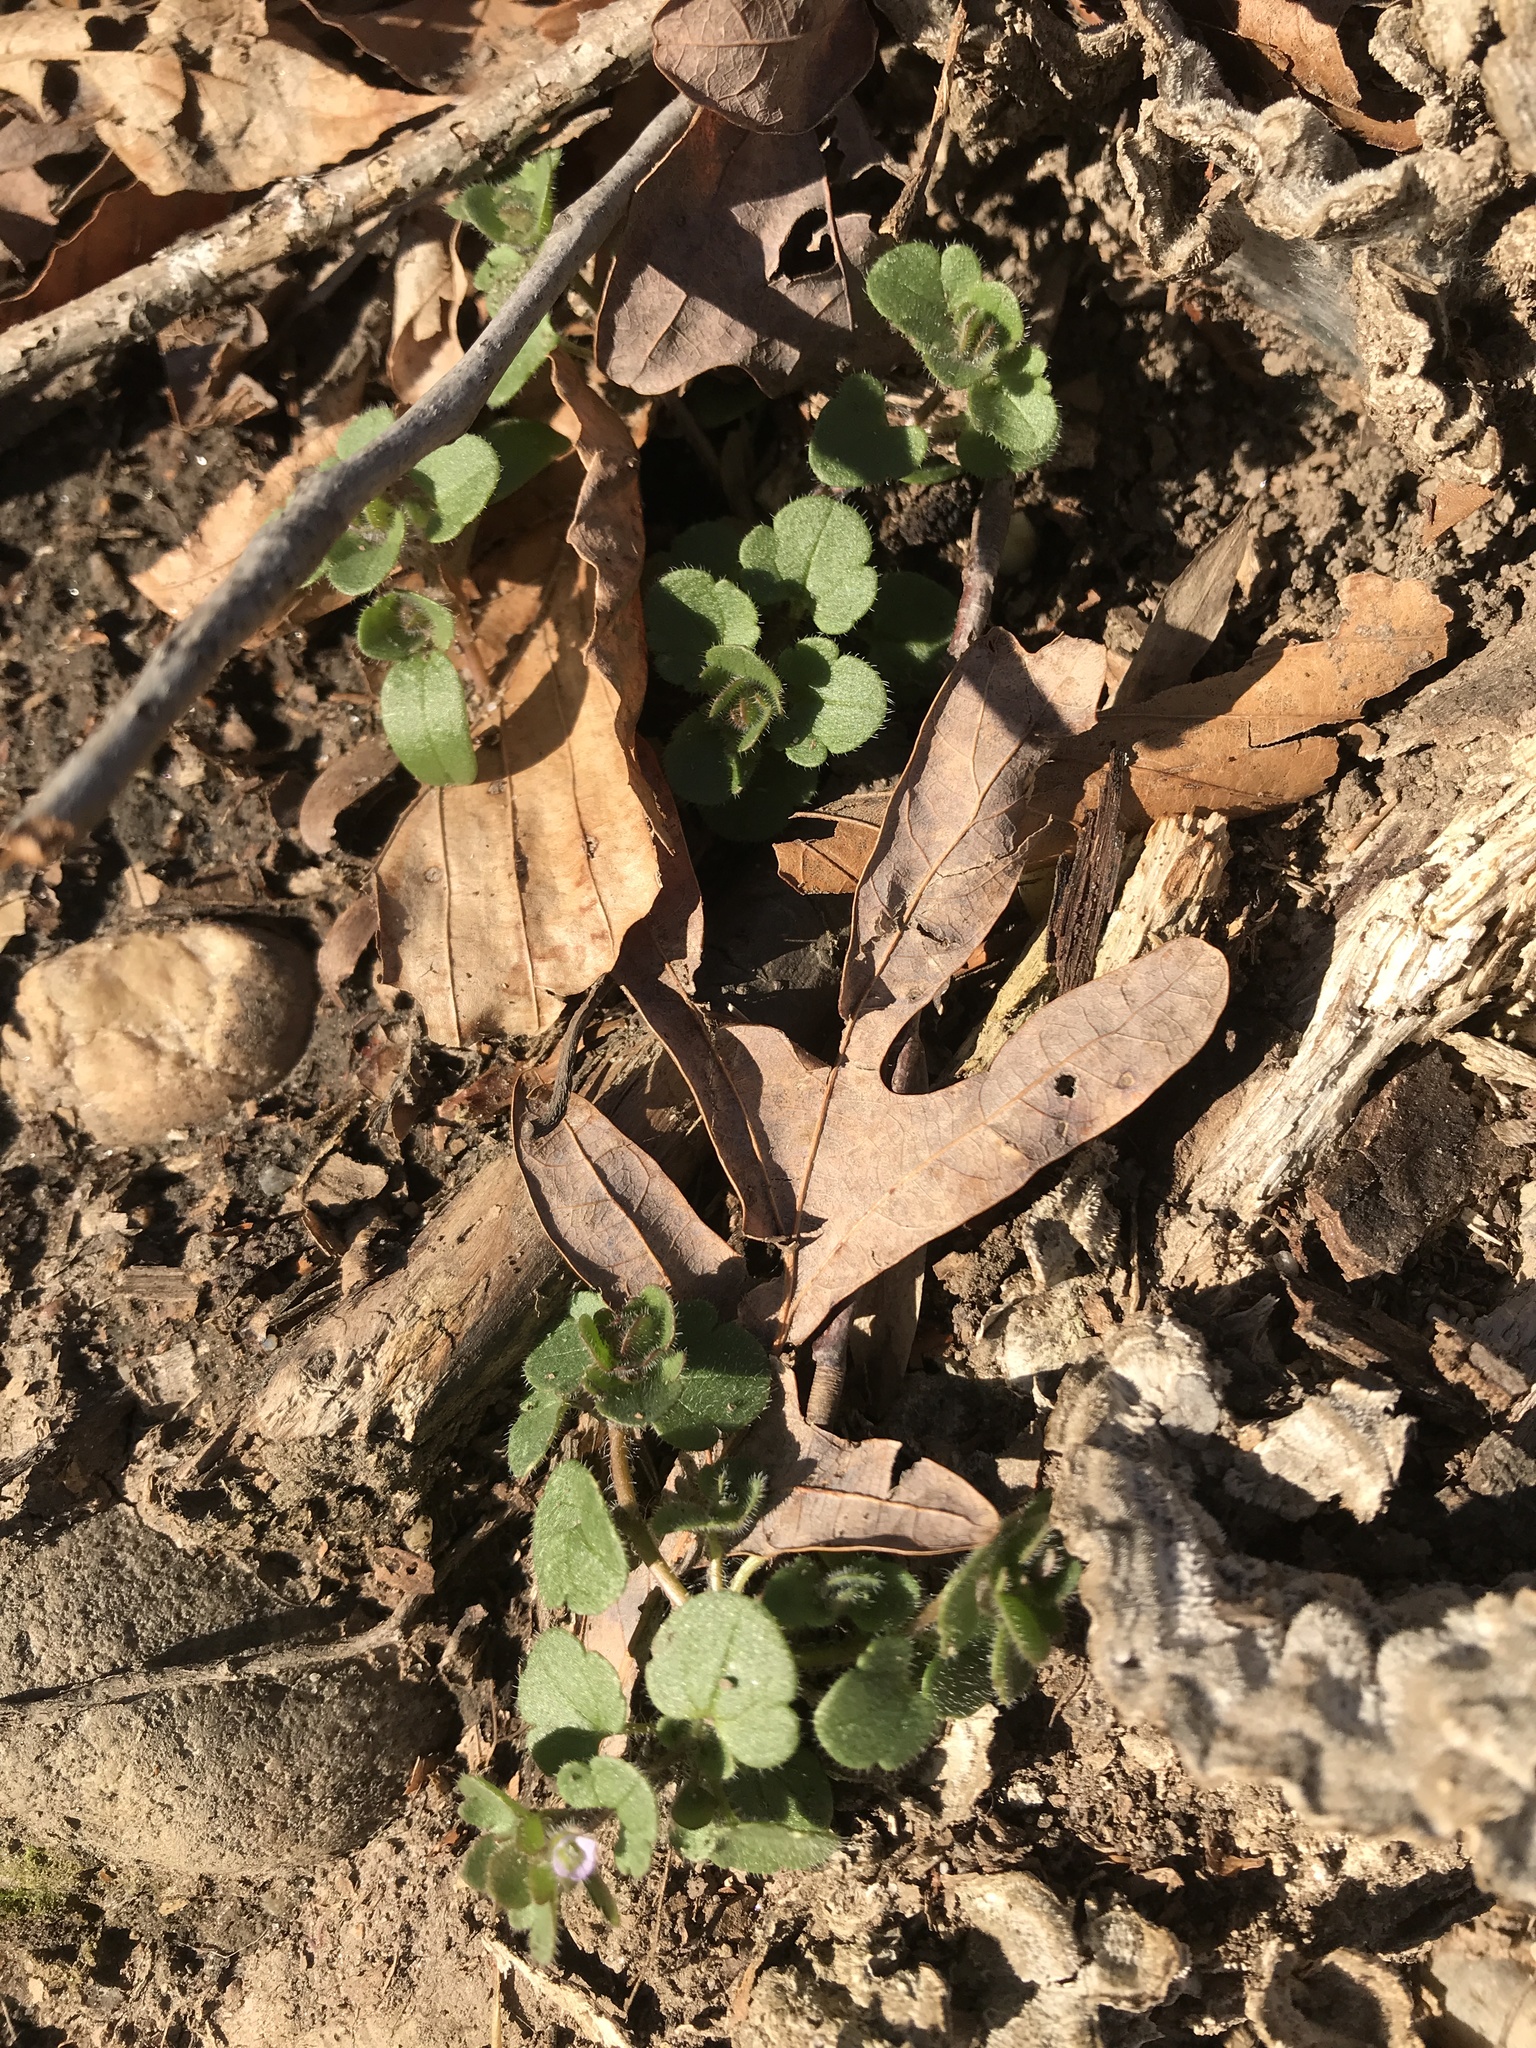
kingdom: Plantae
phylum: Tracheophyta
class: Magnoliopsida
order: Lamiales
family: Plantaginaceae
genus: Veronica
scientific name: Veronica hederifolia
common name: Ivy-leaved speedwell
